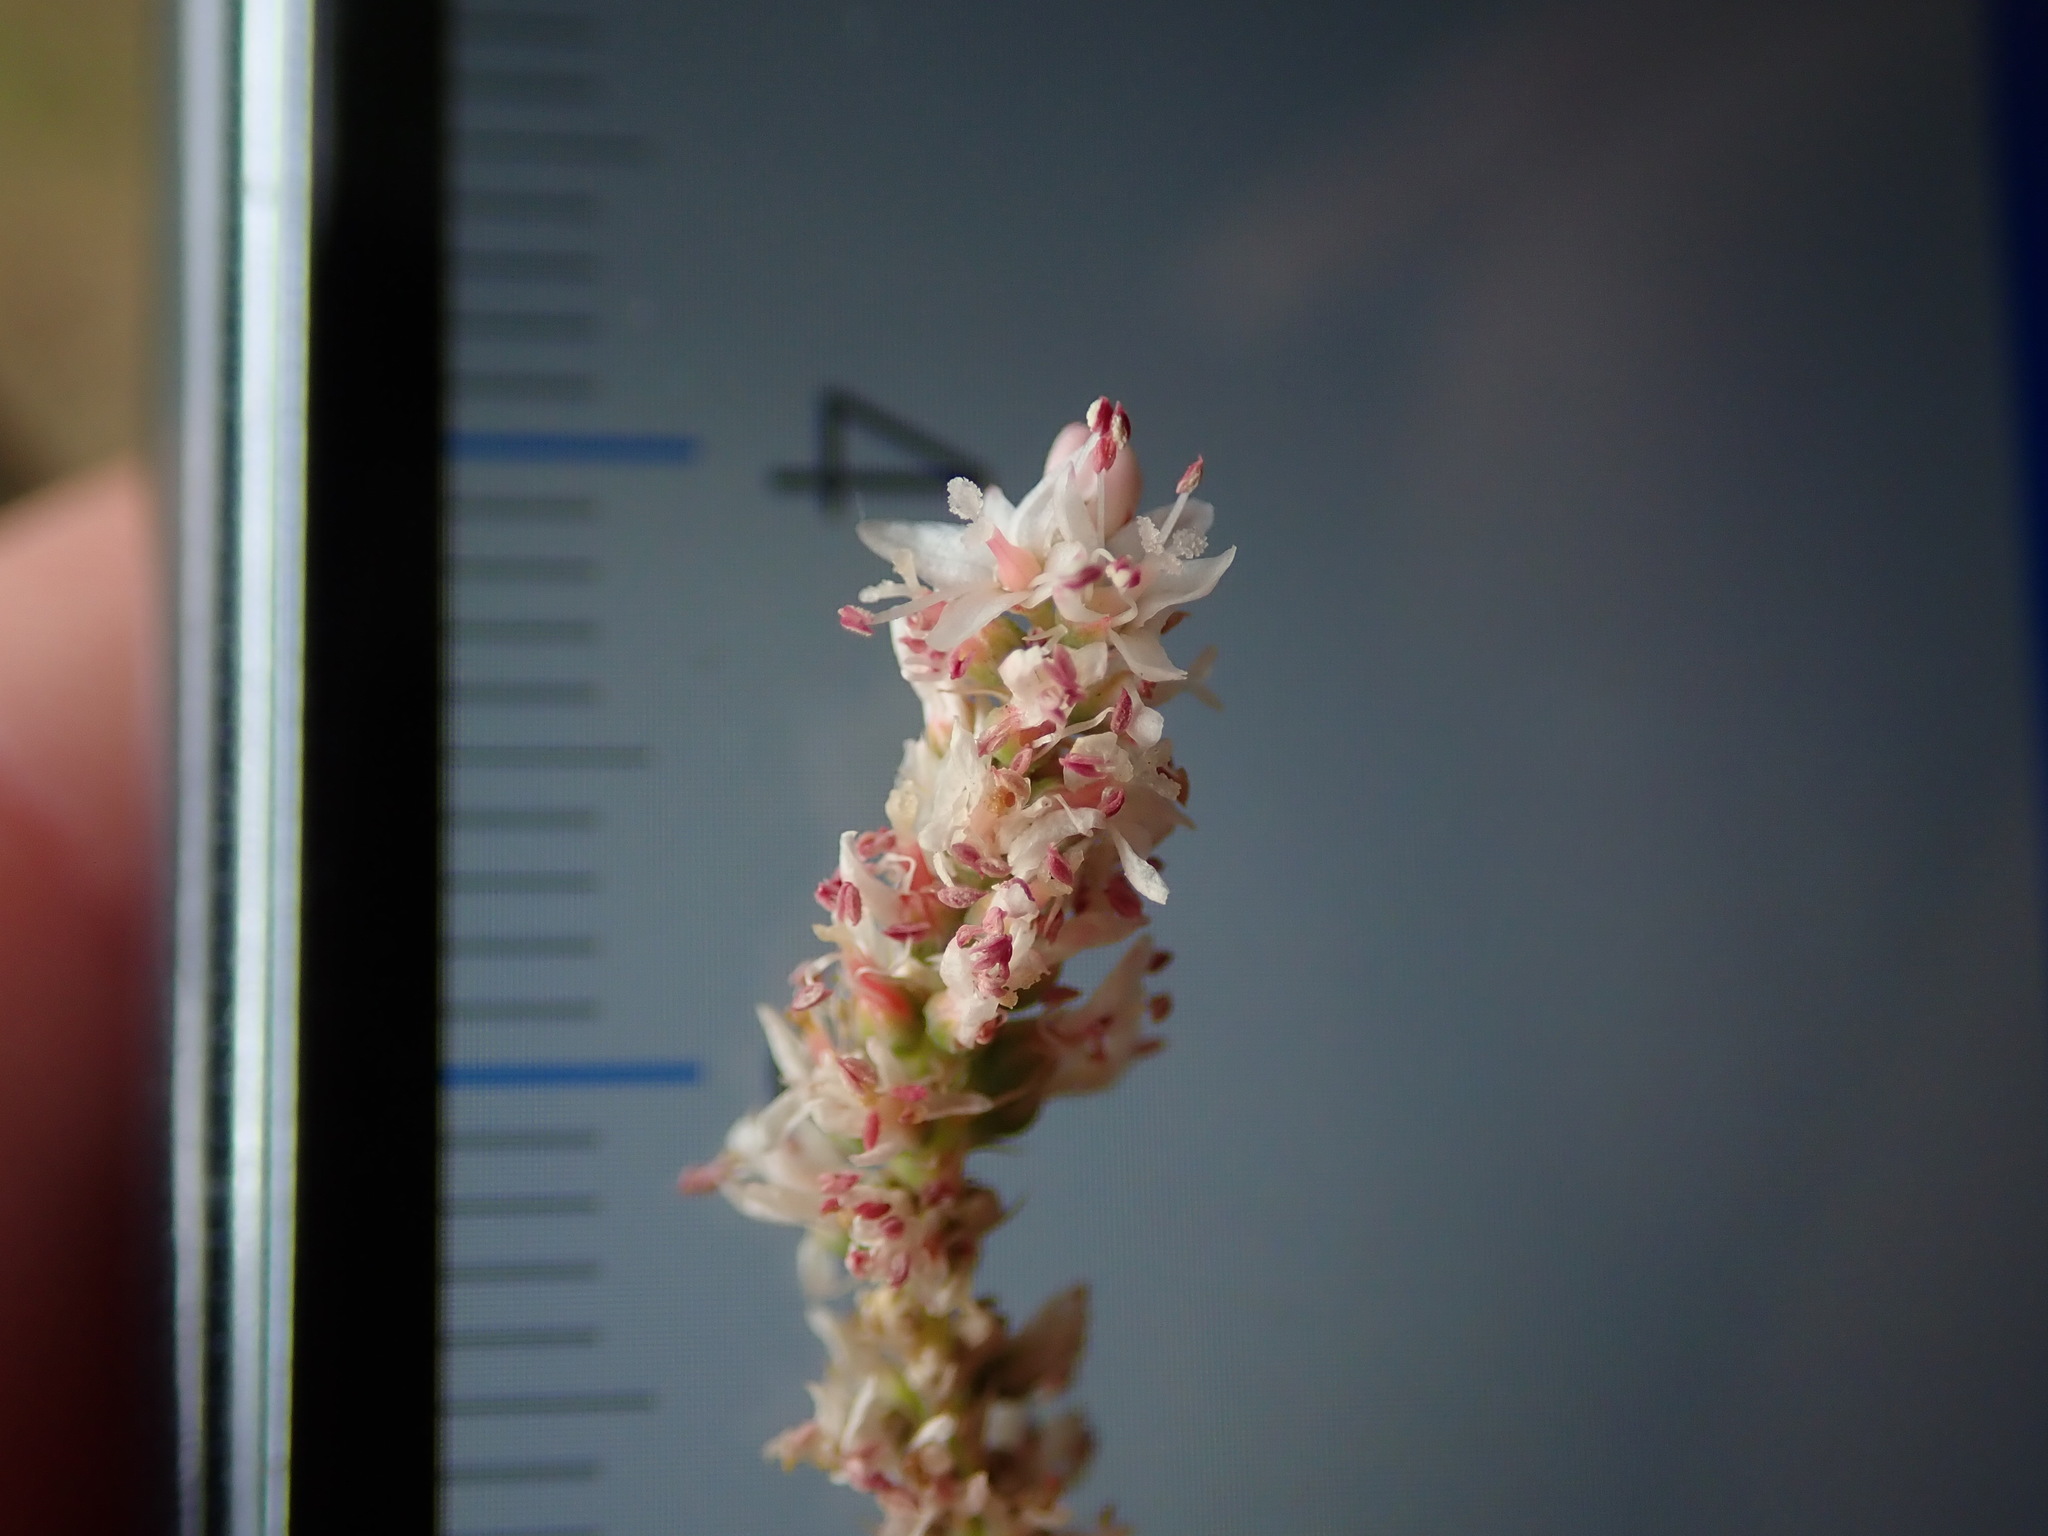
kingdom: Plantae
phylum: Tracheophyta
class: Magnoliopsida
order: Caryophyllales
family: Tamaricaceae
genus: Tamarix
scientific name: Tamarix gallica
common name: Tamarisk
